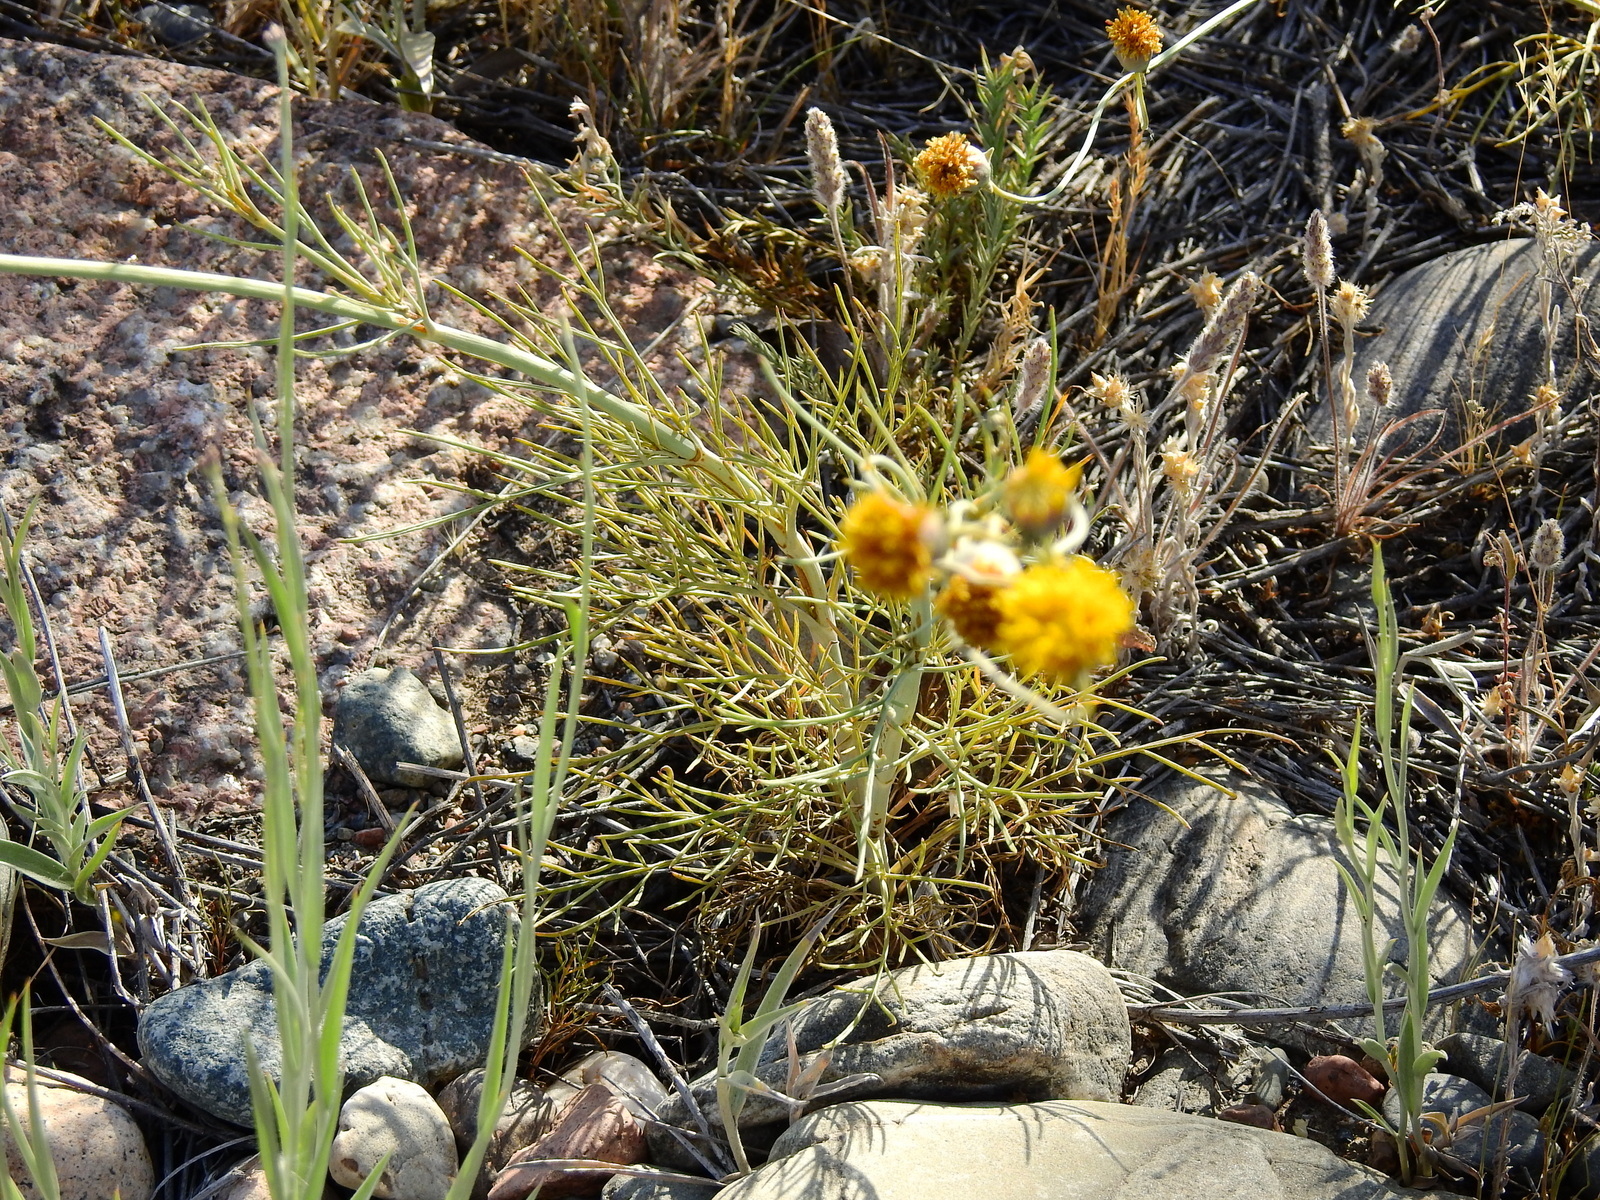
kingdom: Plantae
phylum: Tracheophyta
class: Magnoliopsida
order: Asterales
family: Asteraceae
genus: Thelesperma
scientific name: Thelesperma megapotamicum
